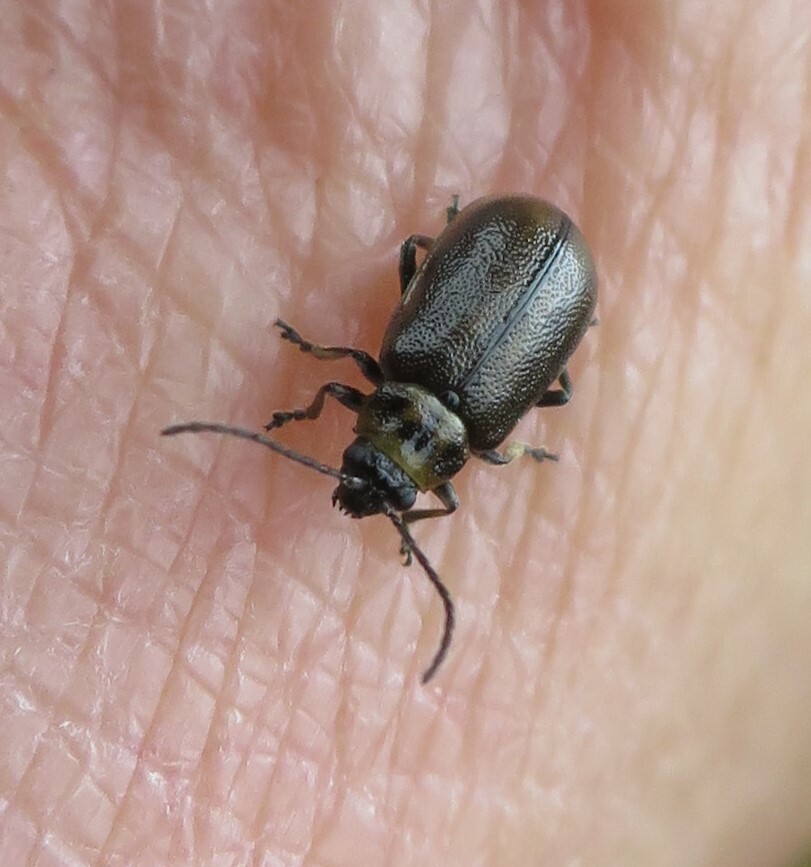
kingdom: Animalia
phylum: Arthropoda
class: Insecta
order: Coleoptera
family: Chrysomelidae
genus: Lochmaea
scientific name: Lochmaea suturalis
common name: Heather beetle
